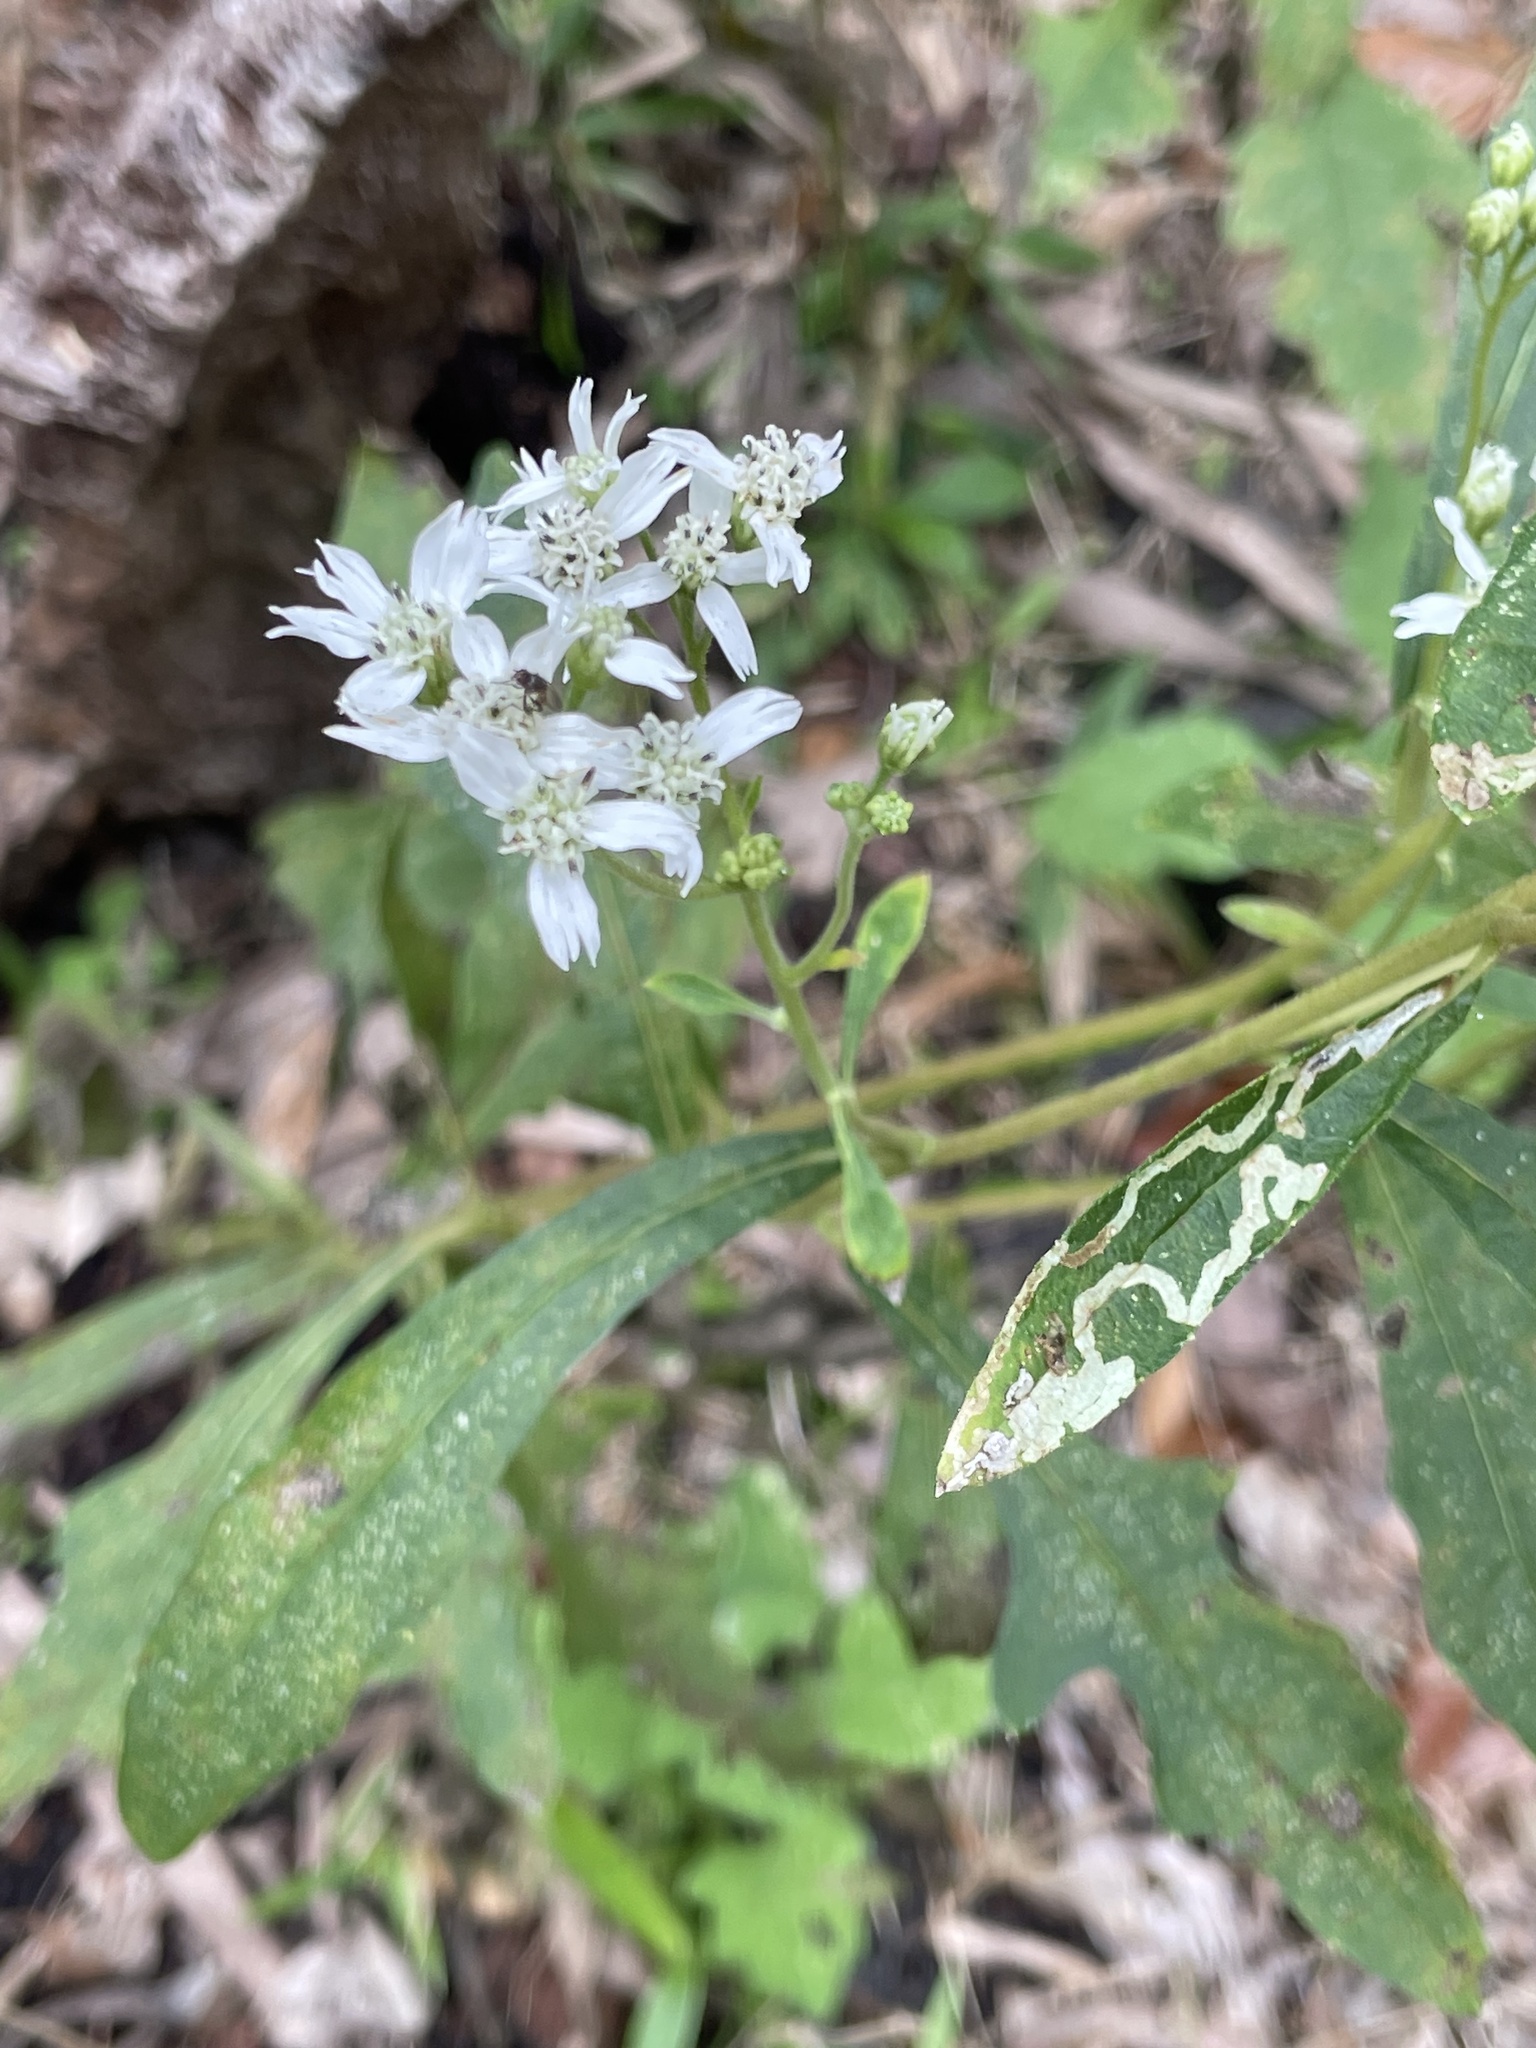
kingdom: Plantae
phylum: Tracheophyta
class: Magnoliopsida
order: Asterales
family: Asteraceae
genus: Verbesina
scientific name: Verbesina virginica
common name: Frostweed
